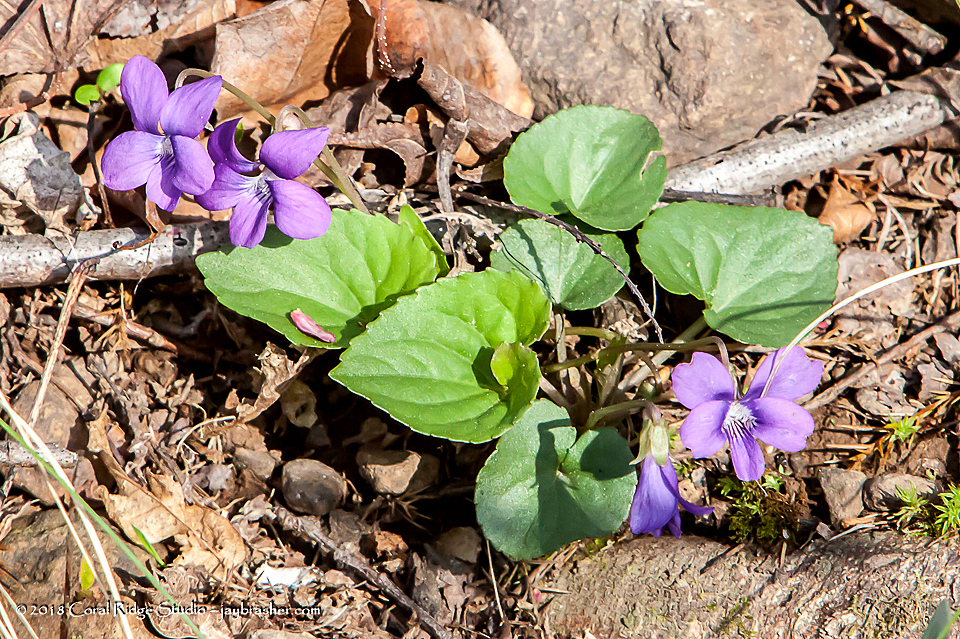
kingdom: Plantae
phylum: Tracheophyta
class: Magnoliopsida
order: Malpighiales
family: Violaceae
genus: Viola
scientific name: Viola sororia
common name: Dooryard violet
